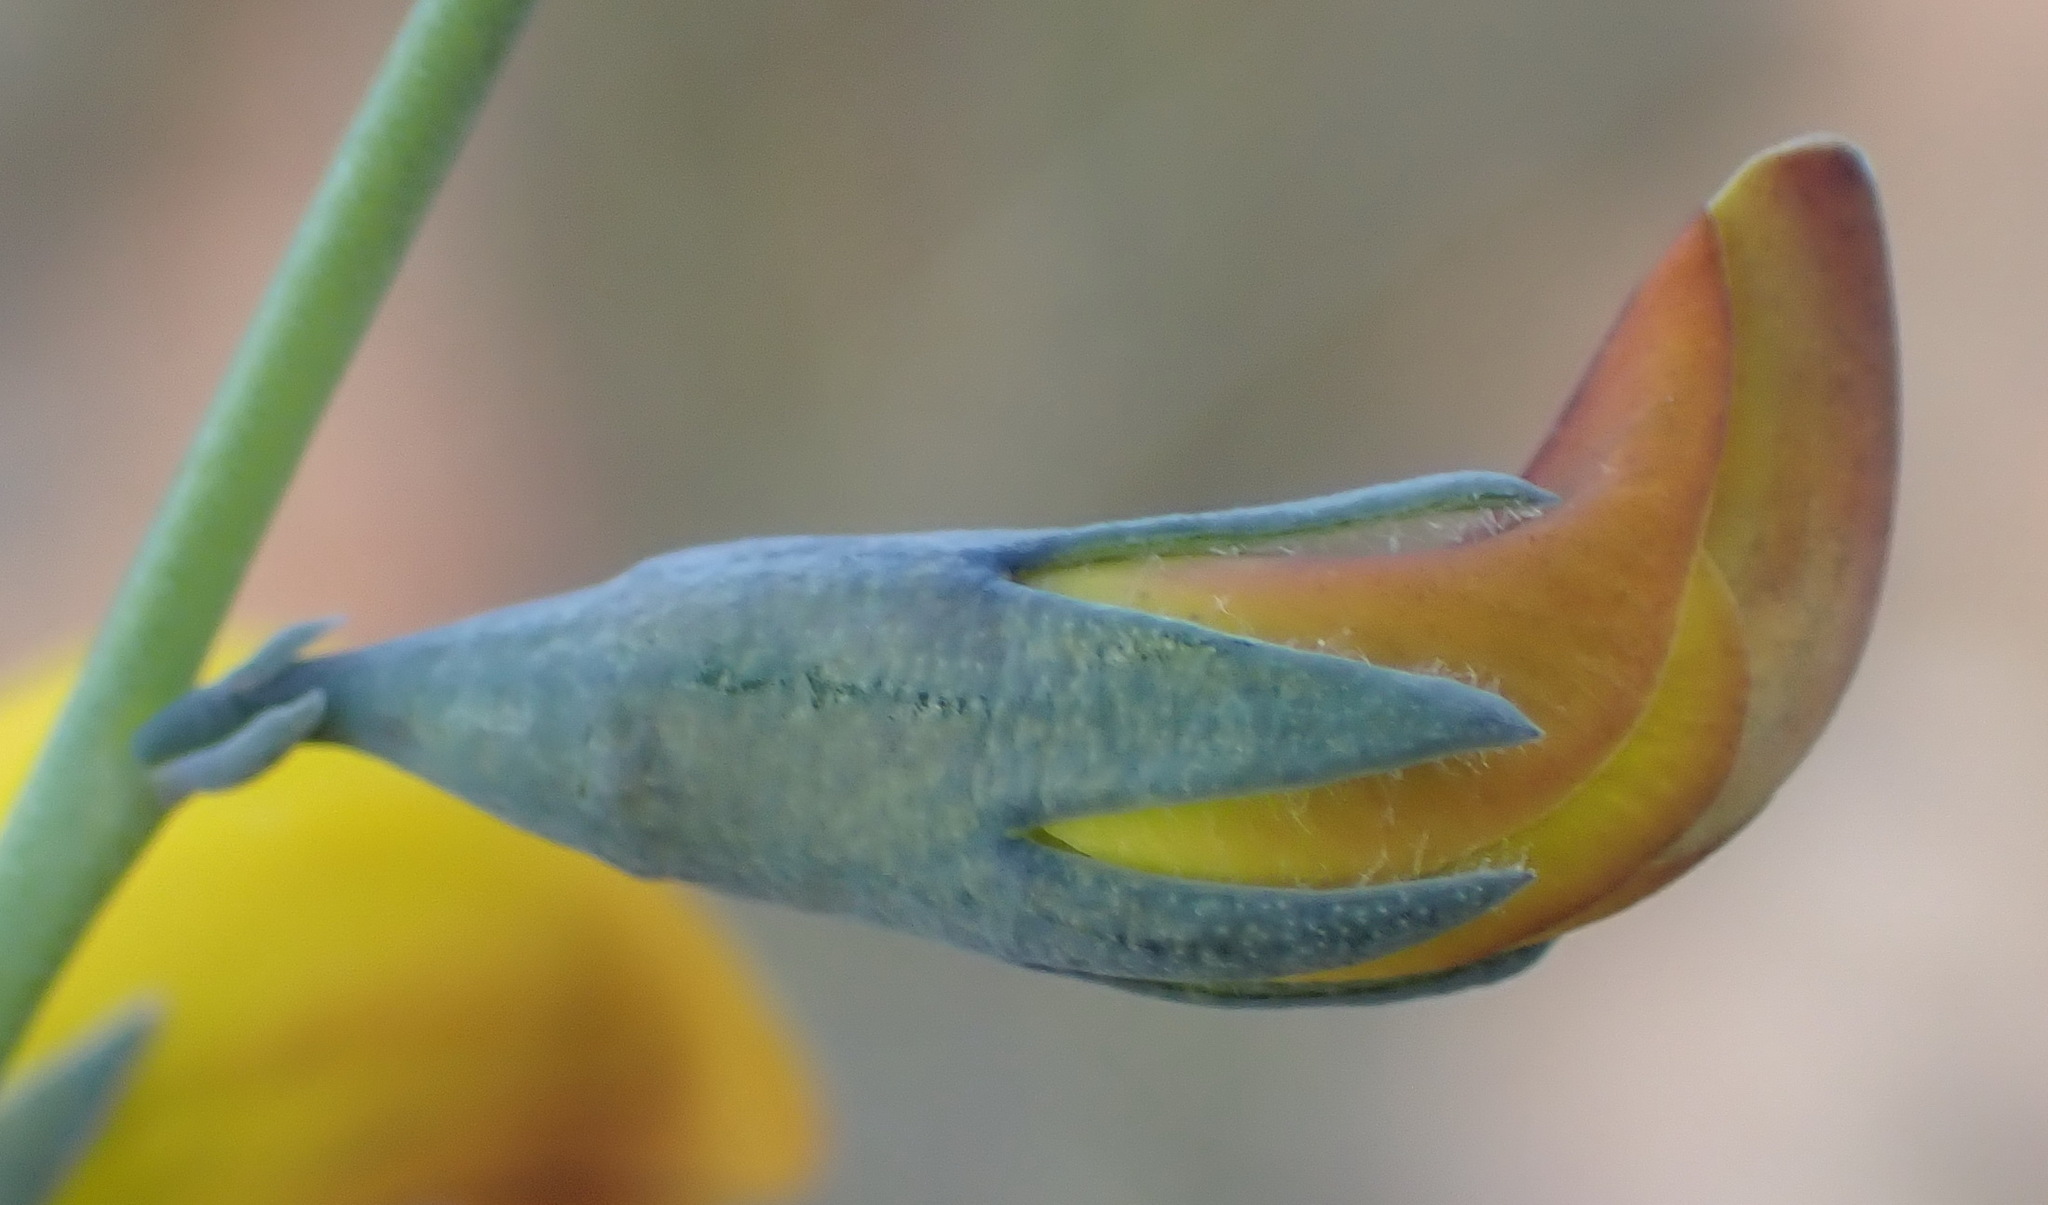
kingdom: Plantae
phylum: Tracheophyta
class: Magnoliopsida
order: Fabales
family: Fabaceae
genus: Lebeckia
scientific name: Lebeckia pauciflora
